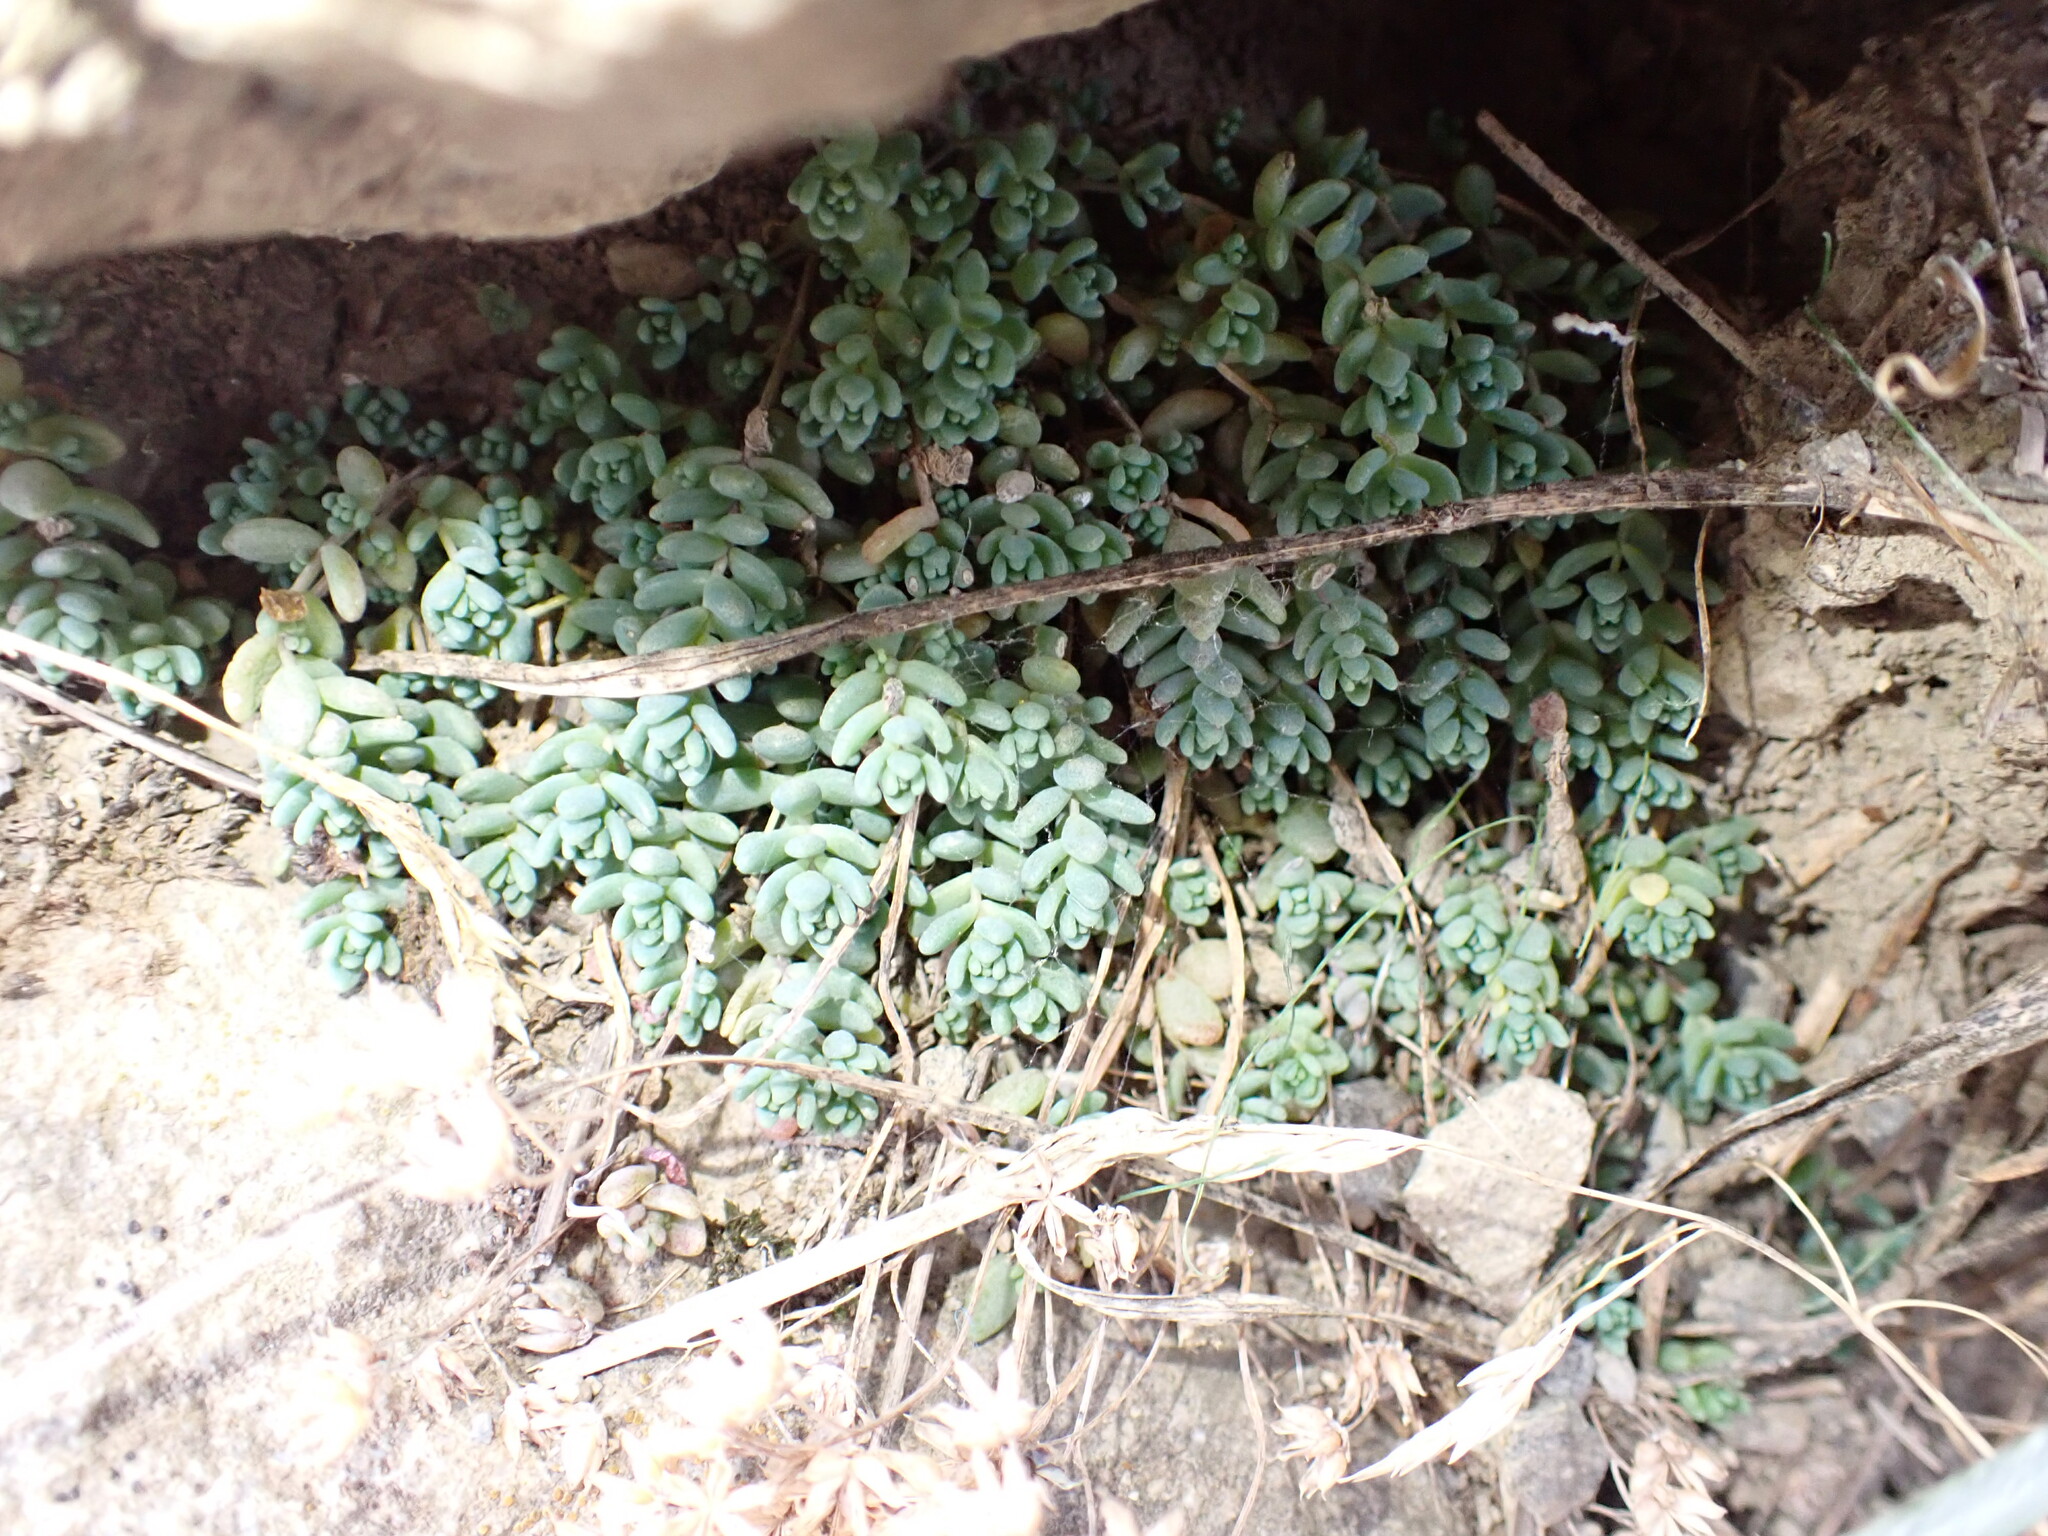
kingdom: Plantae
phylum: Tracheophyta
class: Magnoliopsida
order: Saxifragales
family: Crassulaceae
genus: Sedum
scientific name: Sedum dasyphyllum
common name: Thick-leaf stonecrop
